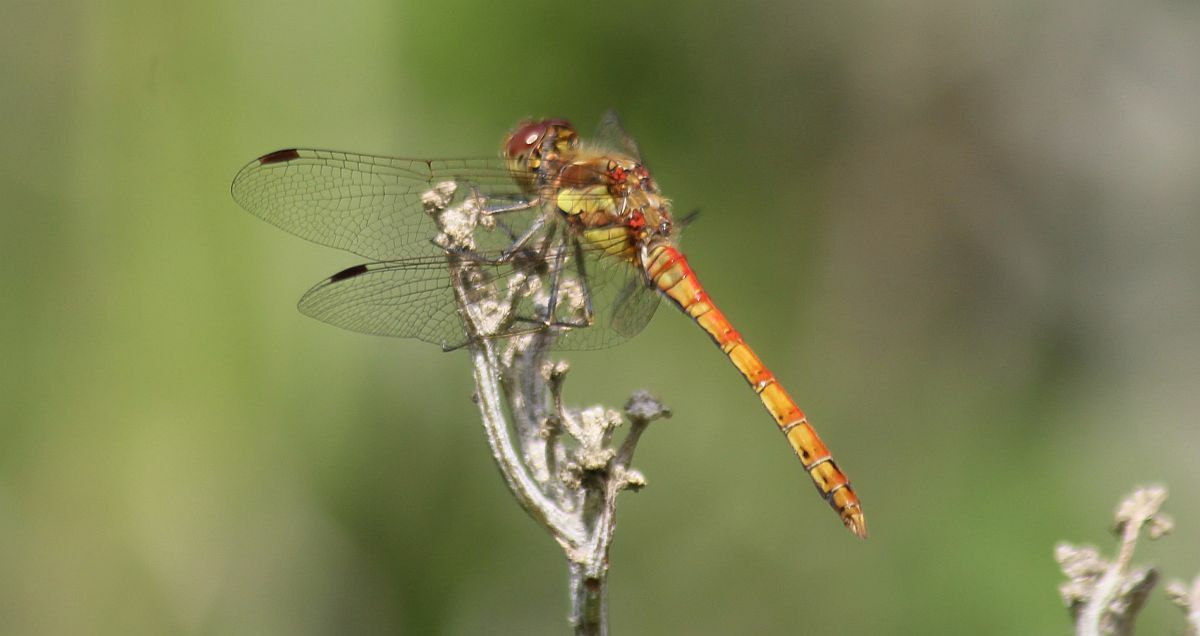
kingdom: Animalia
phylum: Arthropoda
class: Insecta
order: Odonata
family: Libellulidae
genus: Sympetrum
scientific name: Sympetrum striolatum
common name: Common darter
